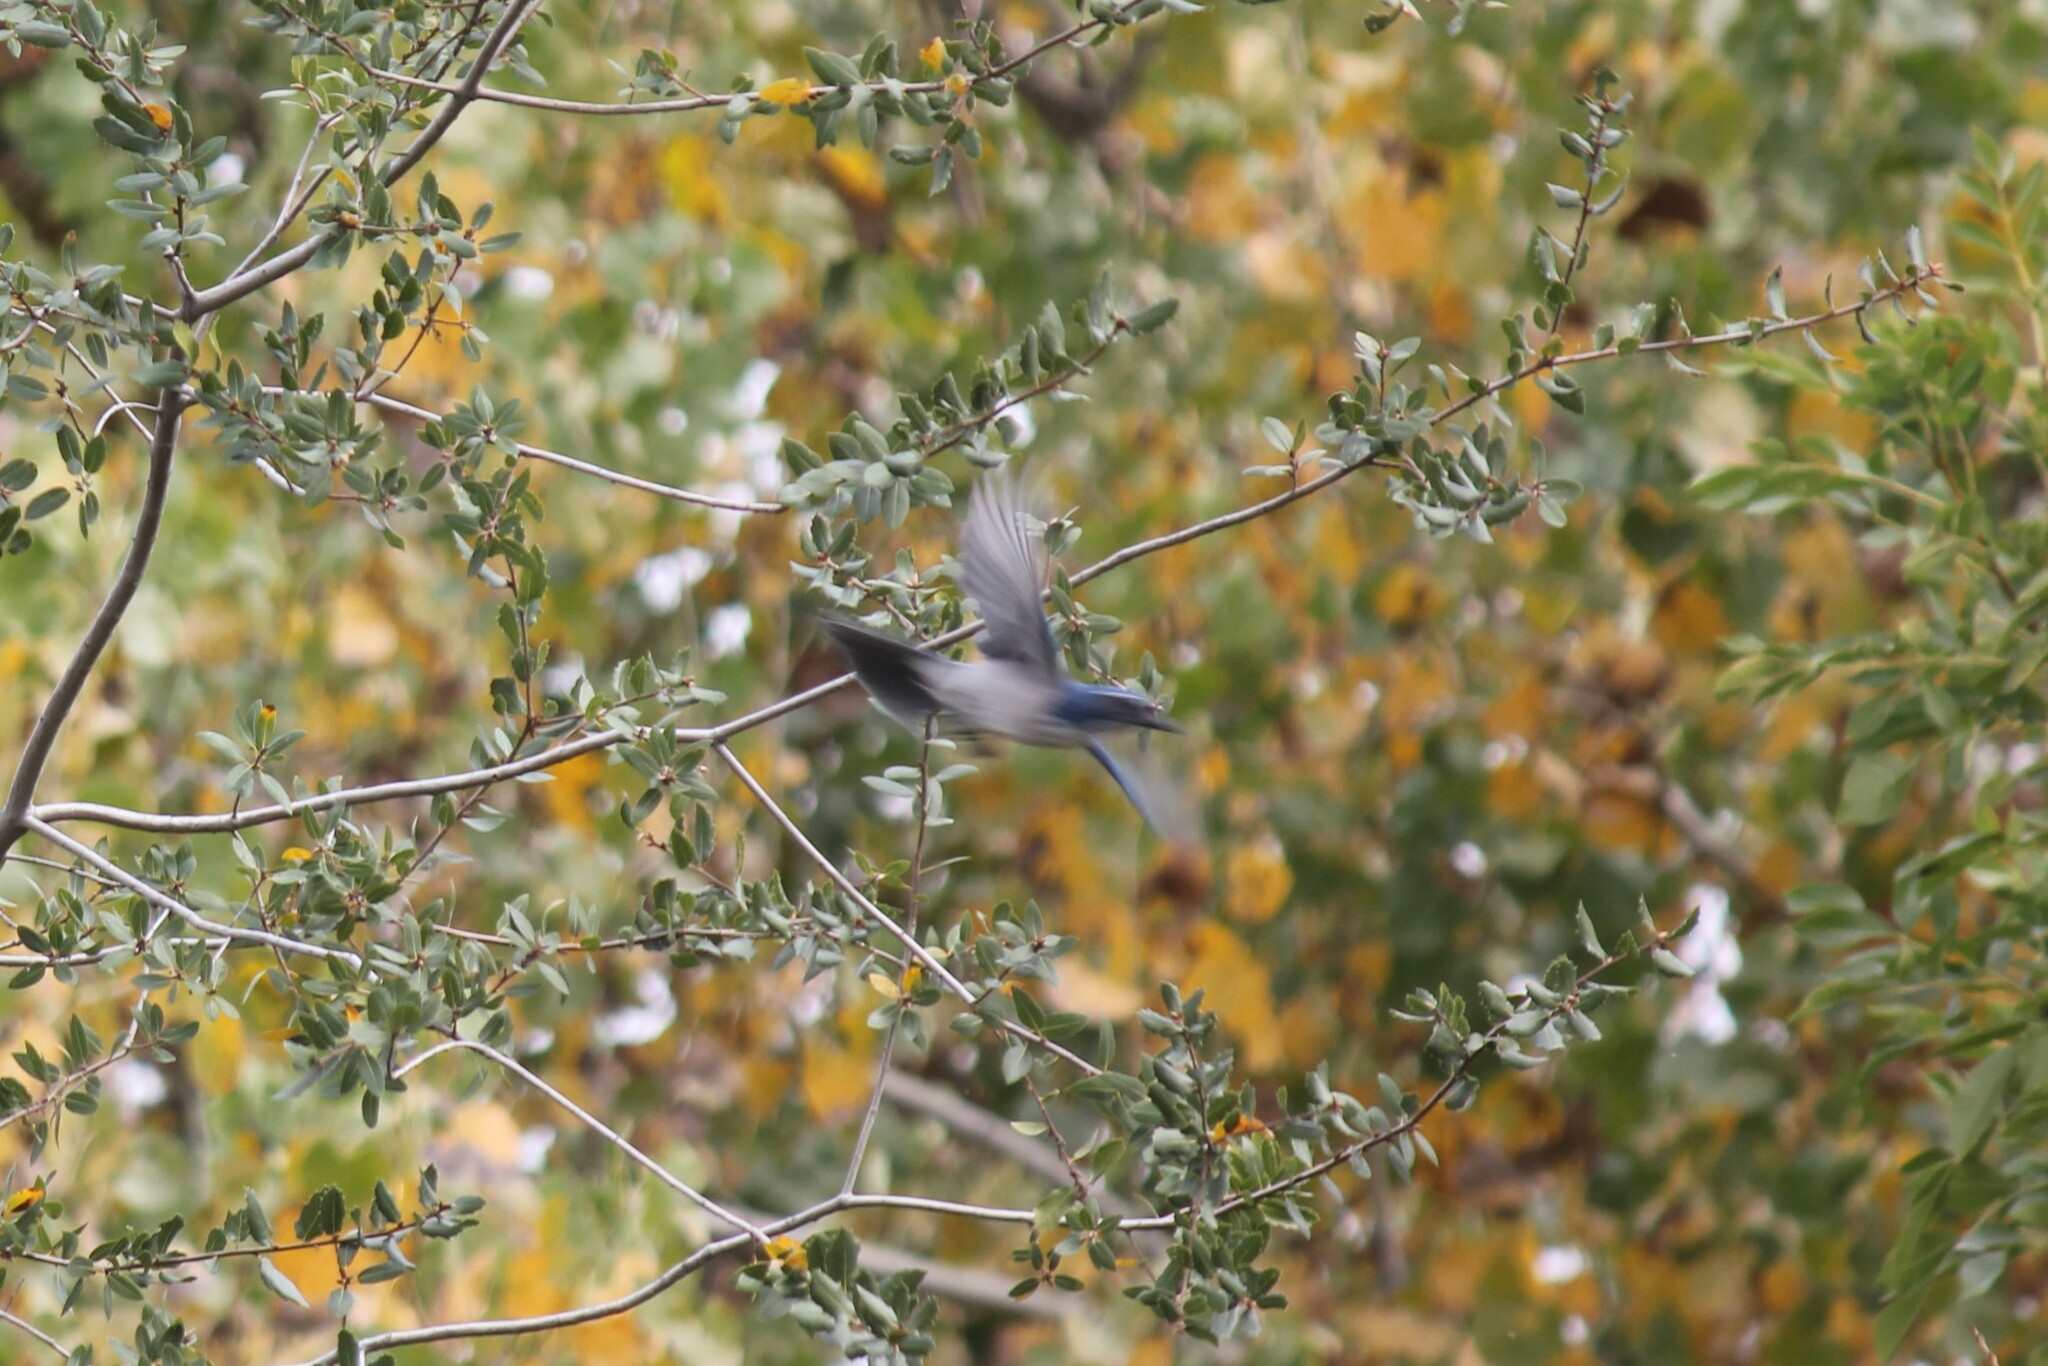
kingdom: Animalia
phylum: Chordata
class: Aves
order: Passeriformes
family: Corvidae
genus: Aphelocoma
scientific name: Aphelocoma californica
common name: California scrub-jay
